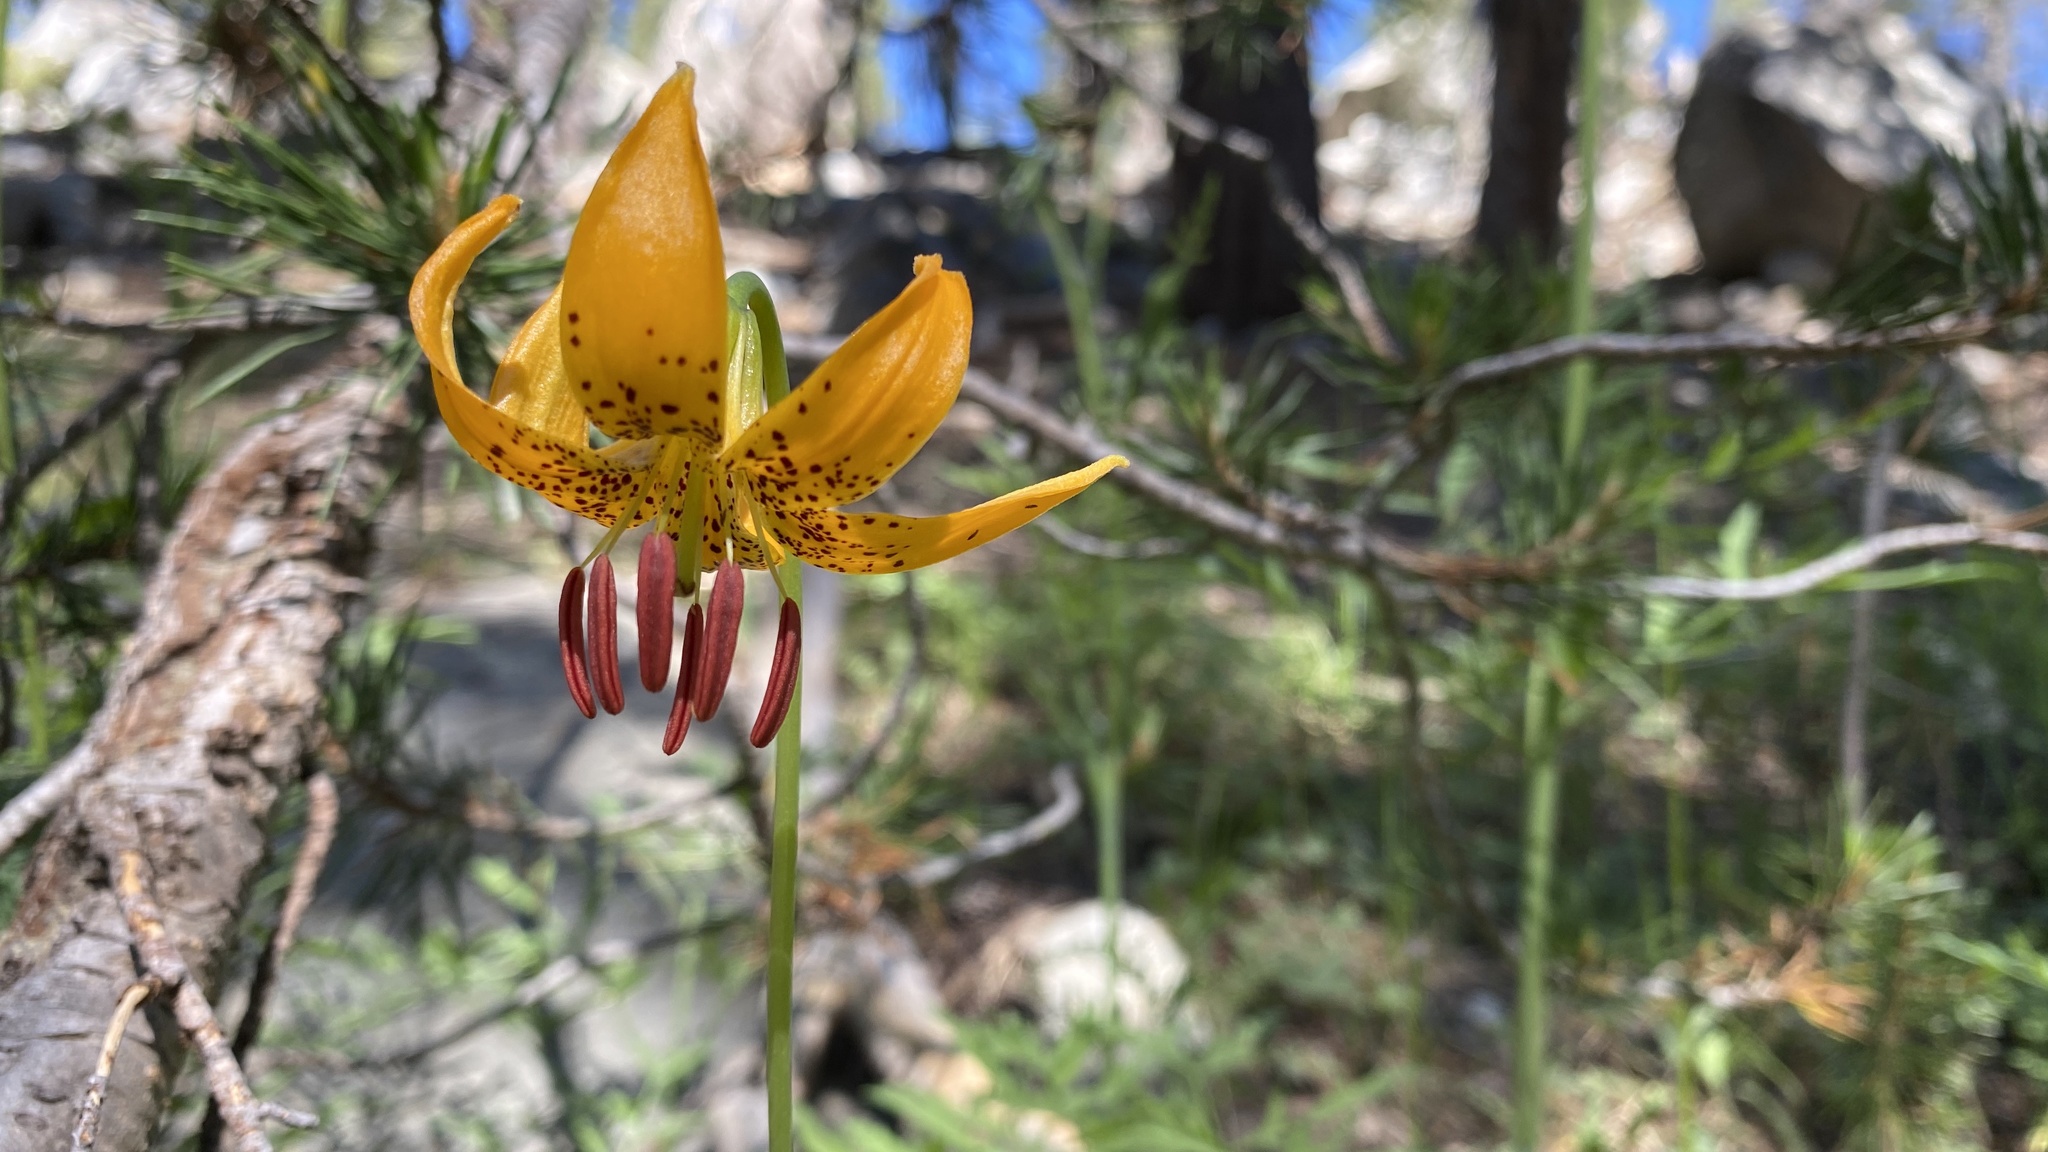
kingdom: Plantae
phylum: Tracheophyta
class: Liliopsida
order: Liliales
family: Liliaceae
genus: Lilium
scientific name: Lilium kelleyanum
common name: Kelley's lily
